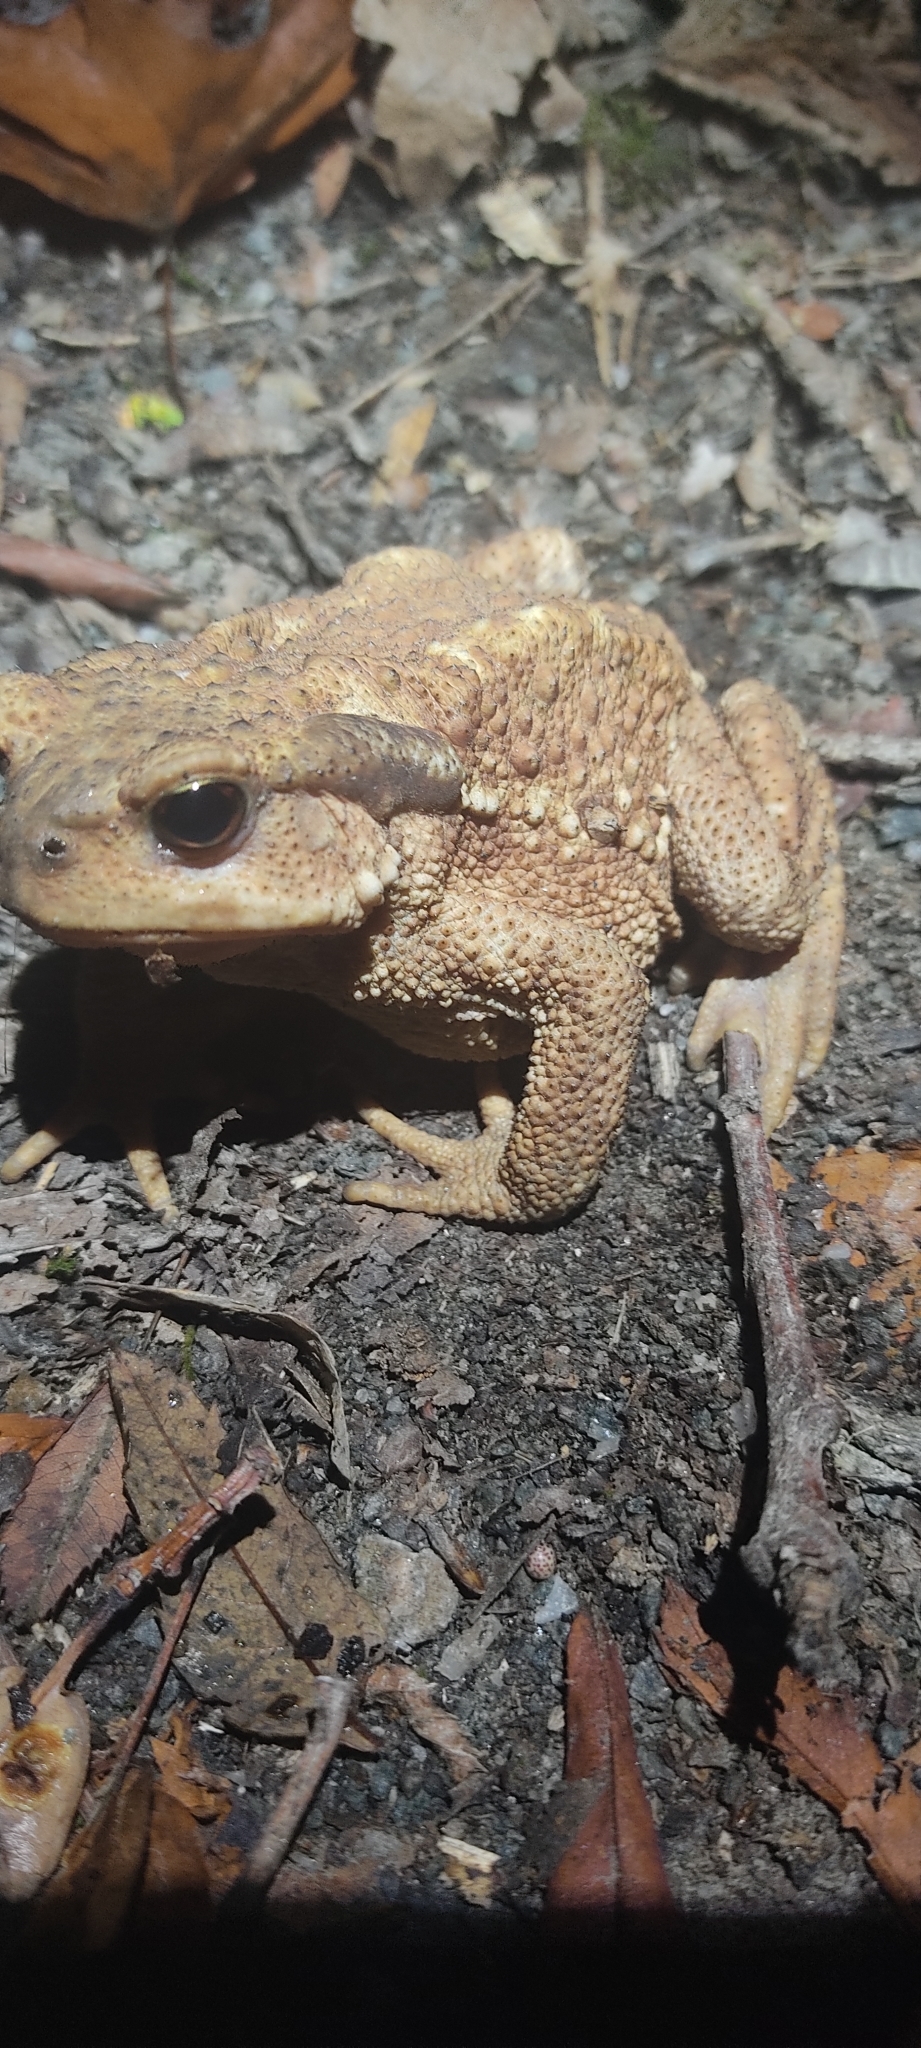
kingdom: Animalia
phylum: Chordata
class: Amphibia
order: Anura
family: Bufonidae
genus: Bufo
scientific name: Bufo spinosus
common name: Western common toad
